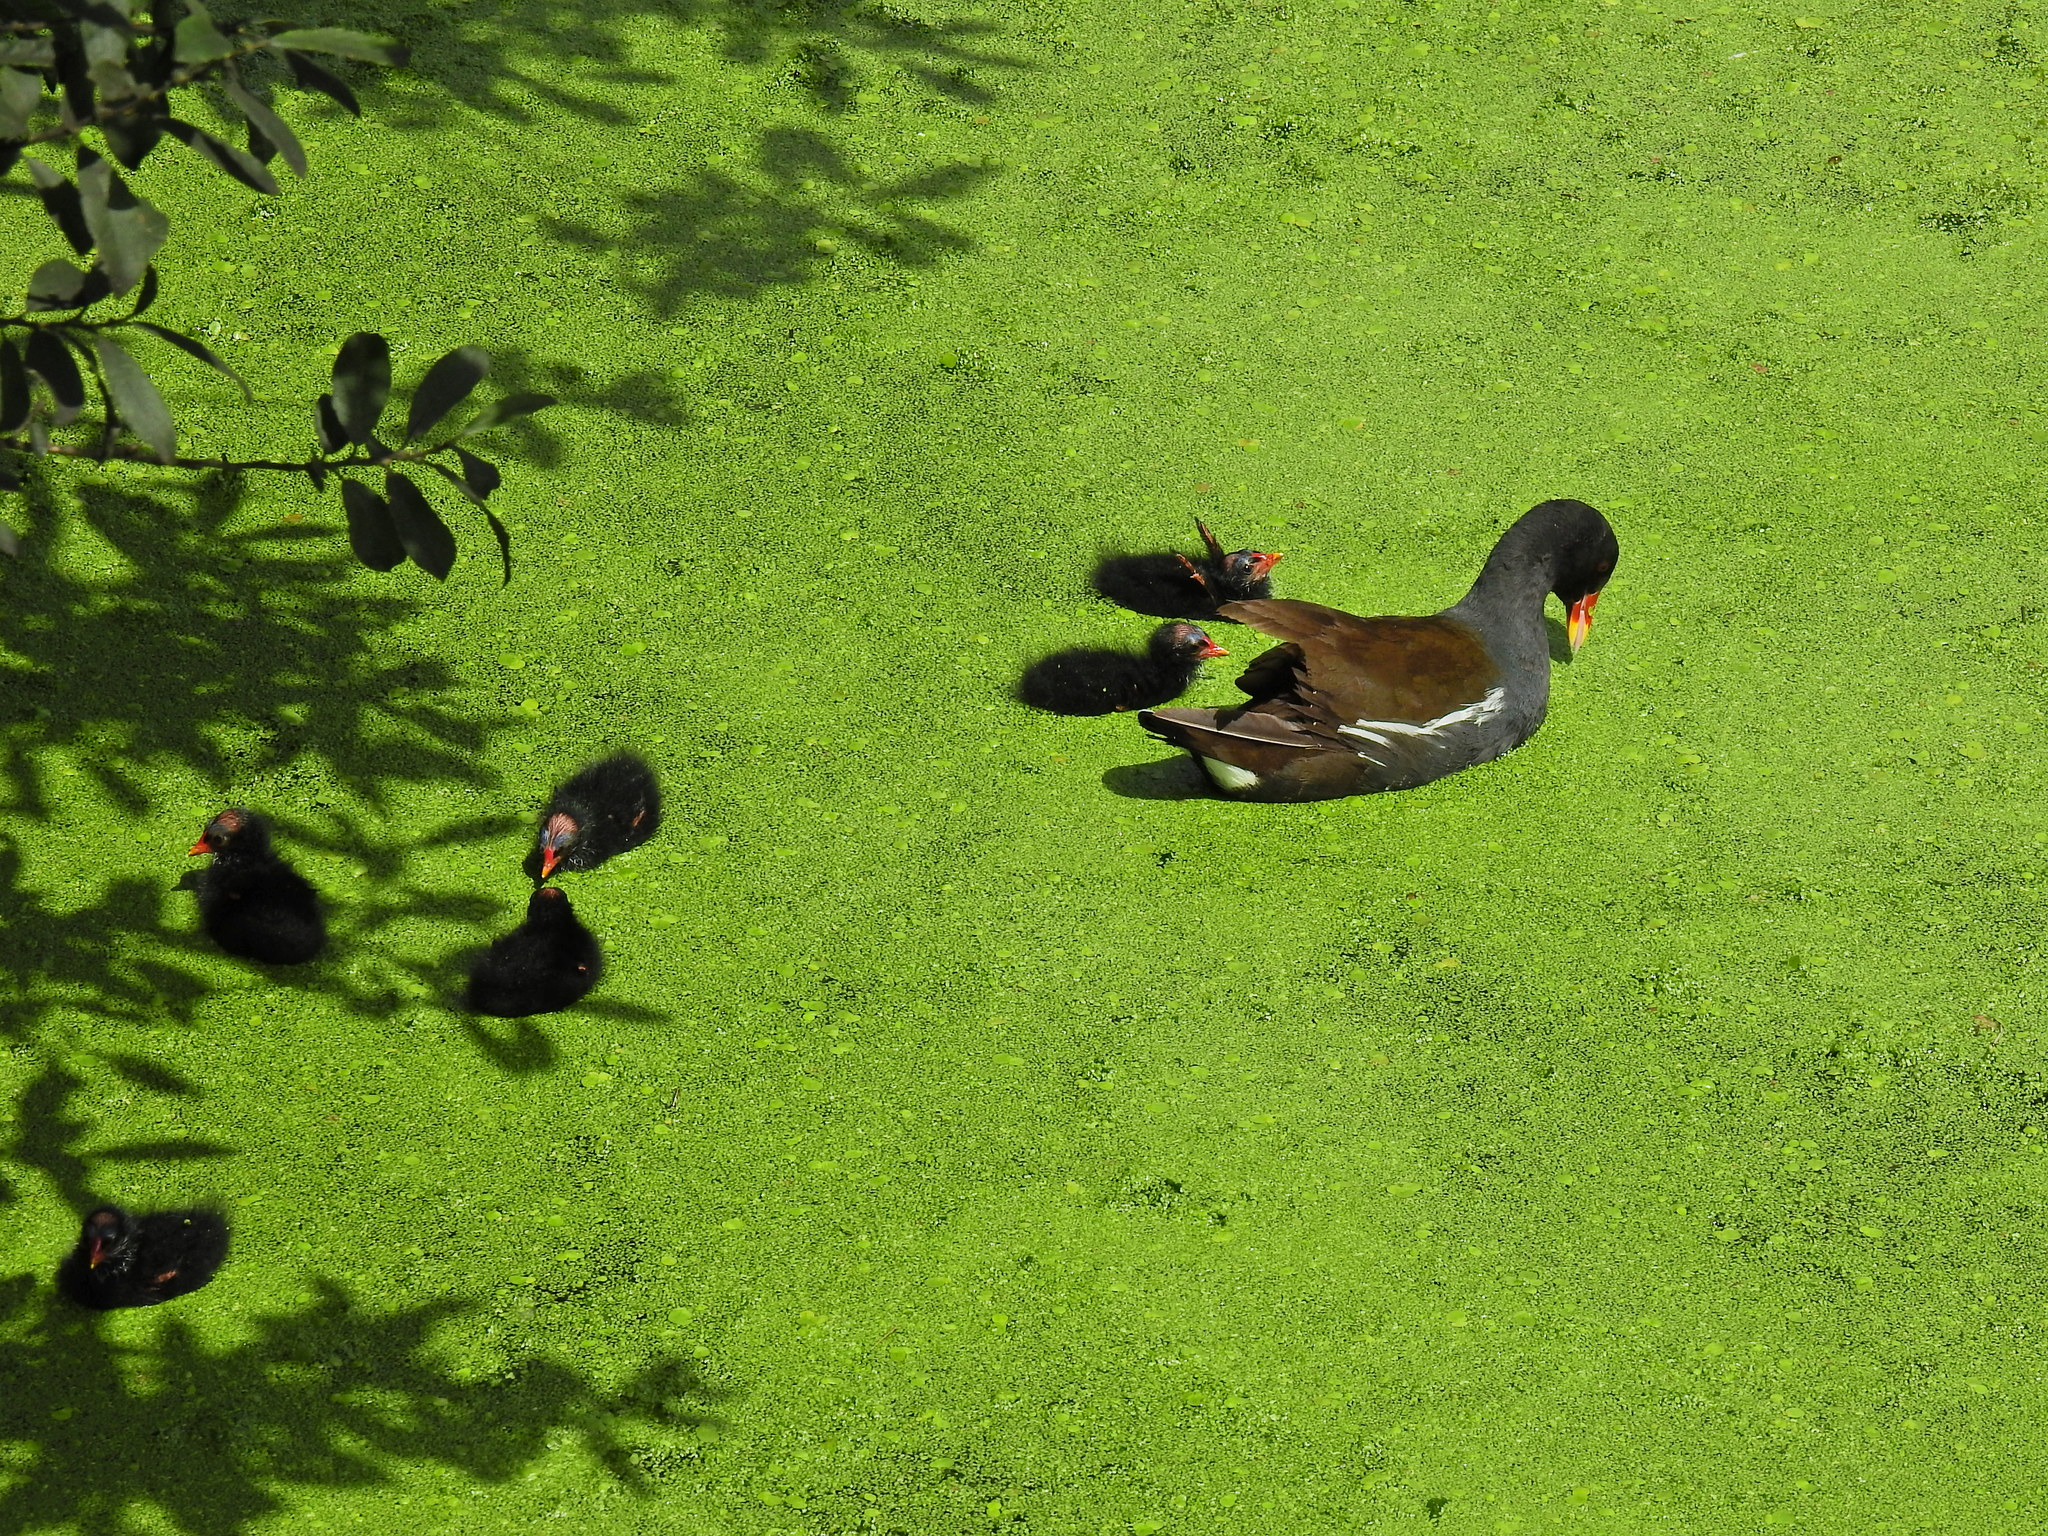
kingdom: Animalia
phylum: Chordata
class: Aves
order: Gruiformes
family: Rallidae
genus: Gallinula
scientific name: Gallinula chloropus
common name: Common moorhen
